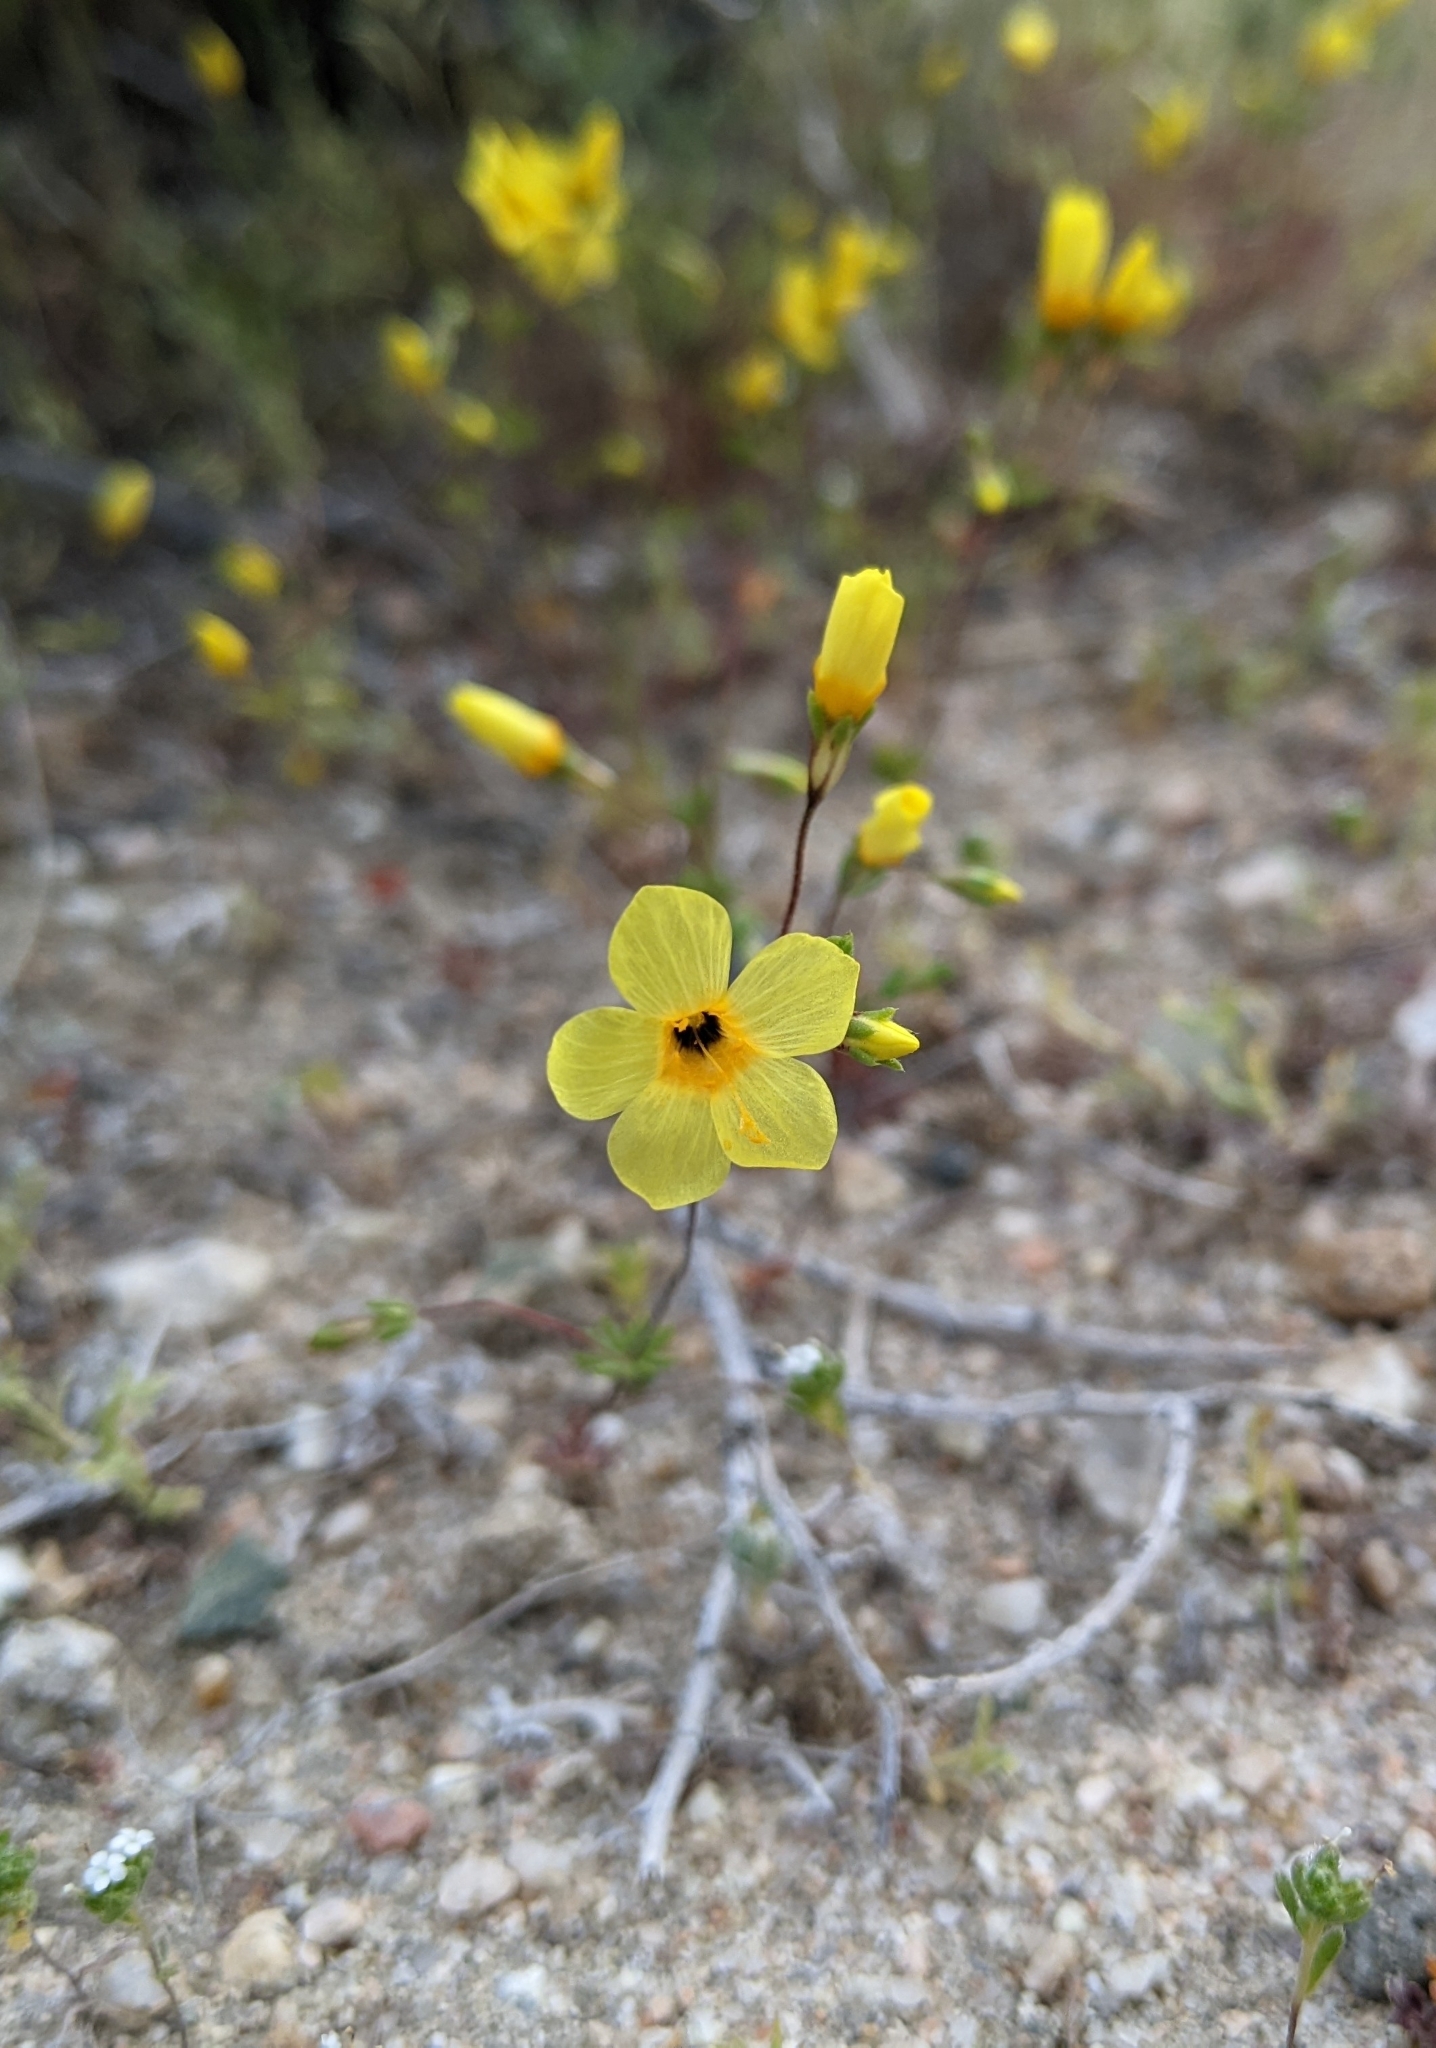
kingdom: Plantae
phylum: Tracheophyta
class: Magnoliopsida
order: Ericales
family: Polemoniaceae
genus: Leptosiphon
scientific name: Leptosiphon chrysanthus
